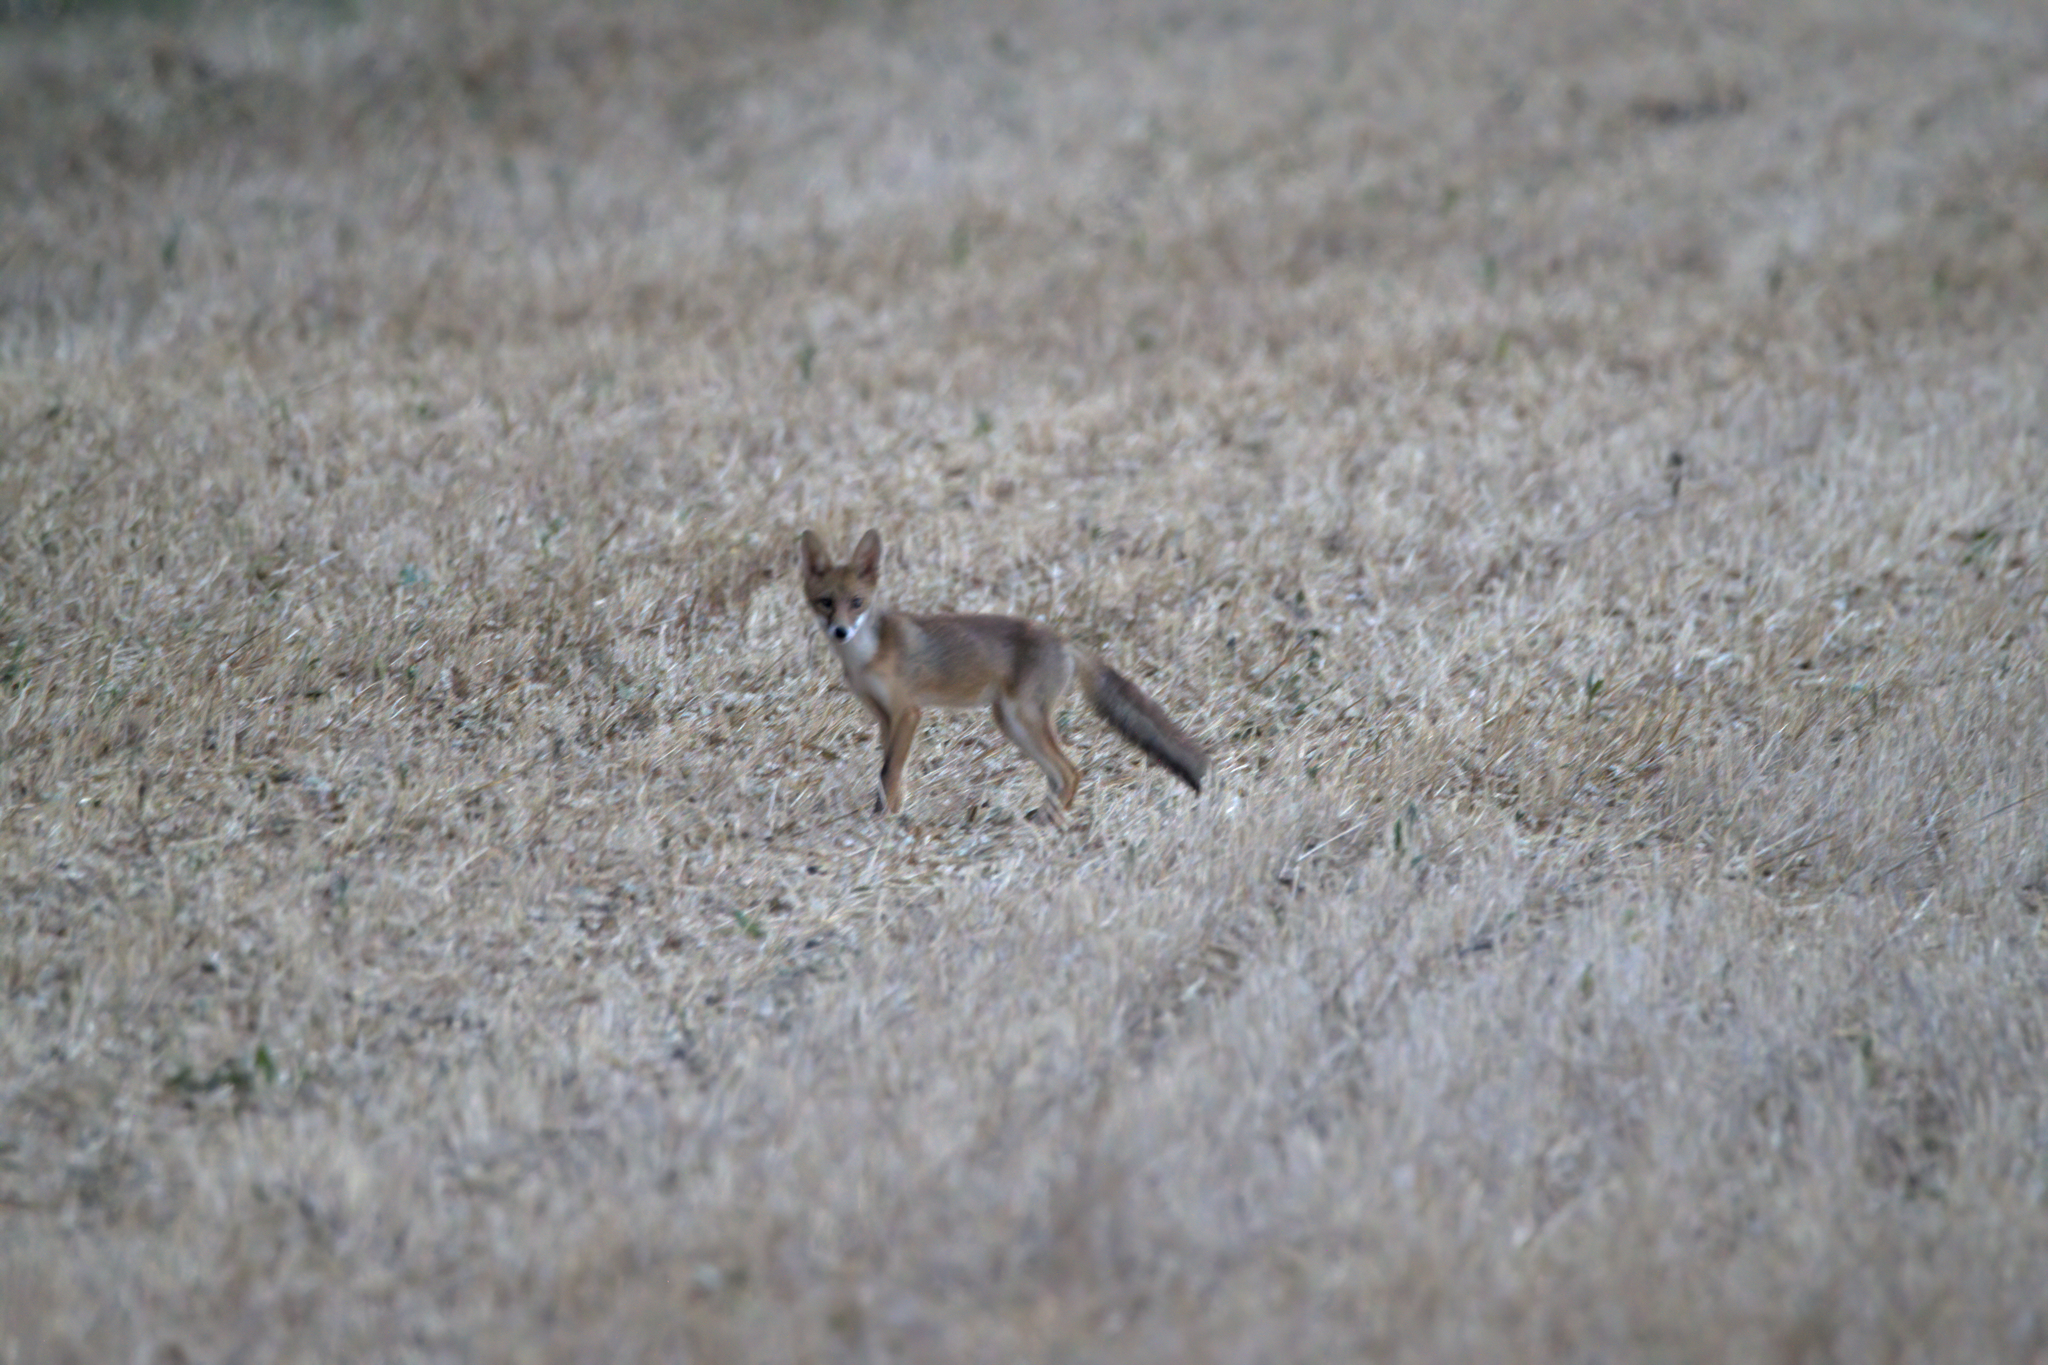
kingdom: Animalia
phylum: Chordata
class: Mammalia
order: Carnivora
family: Canidae
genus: Vulpes
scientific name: Vulpes vulpes
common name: Red fox
